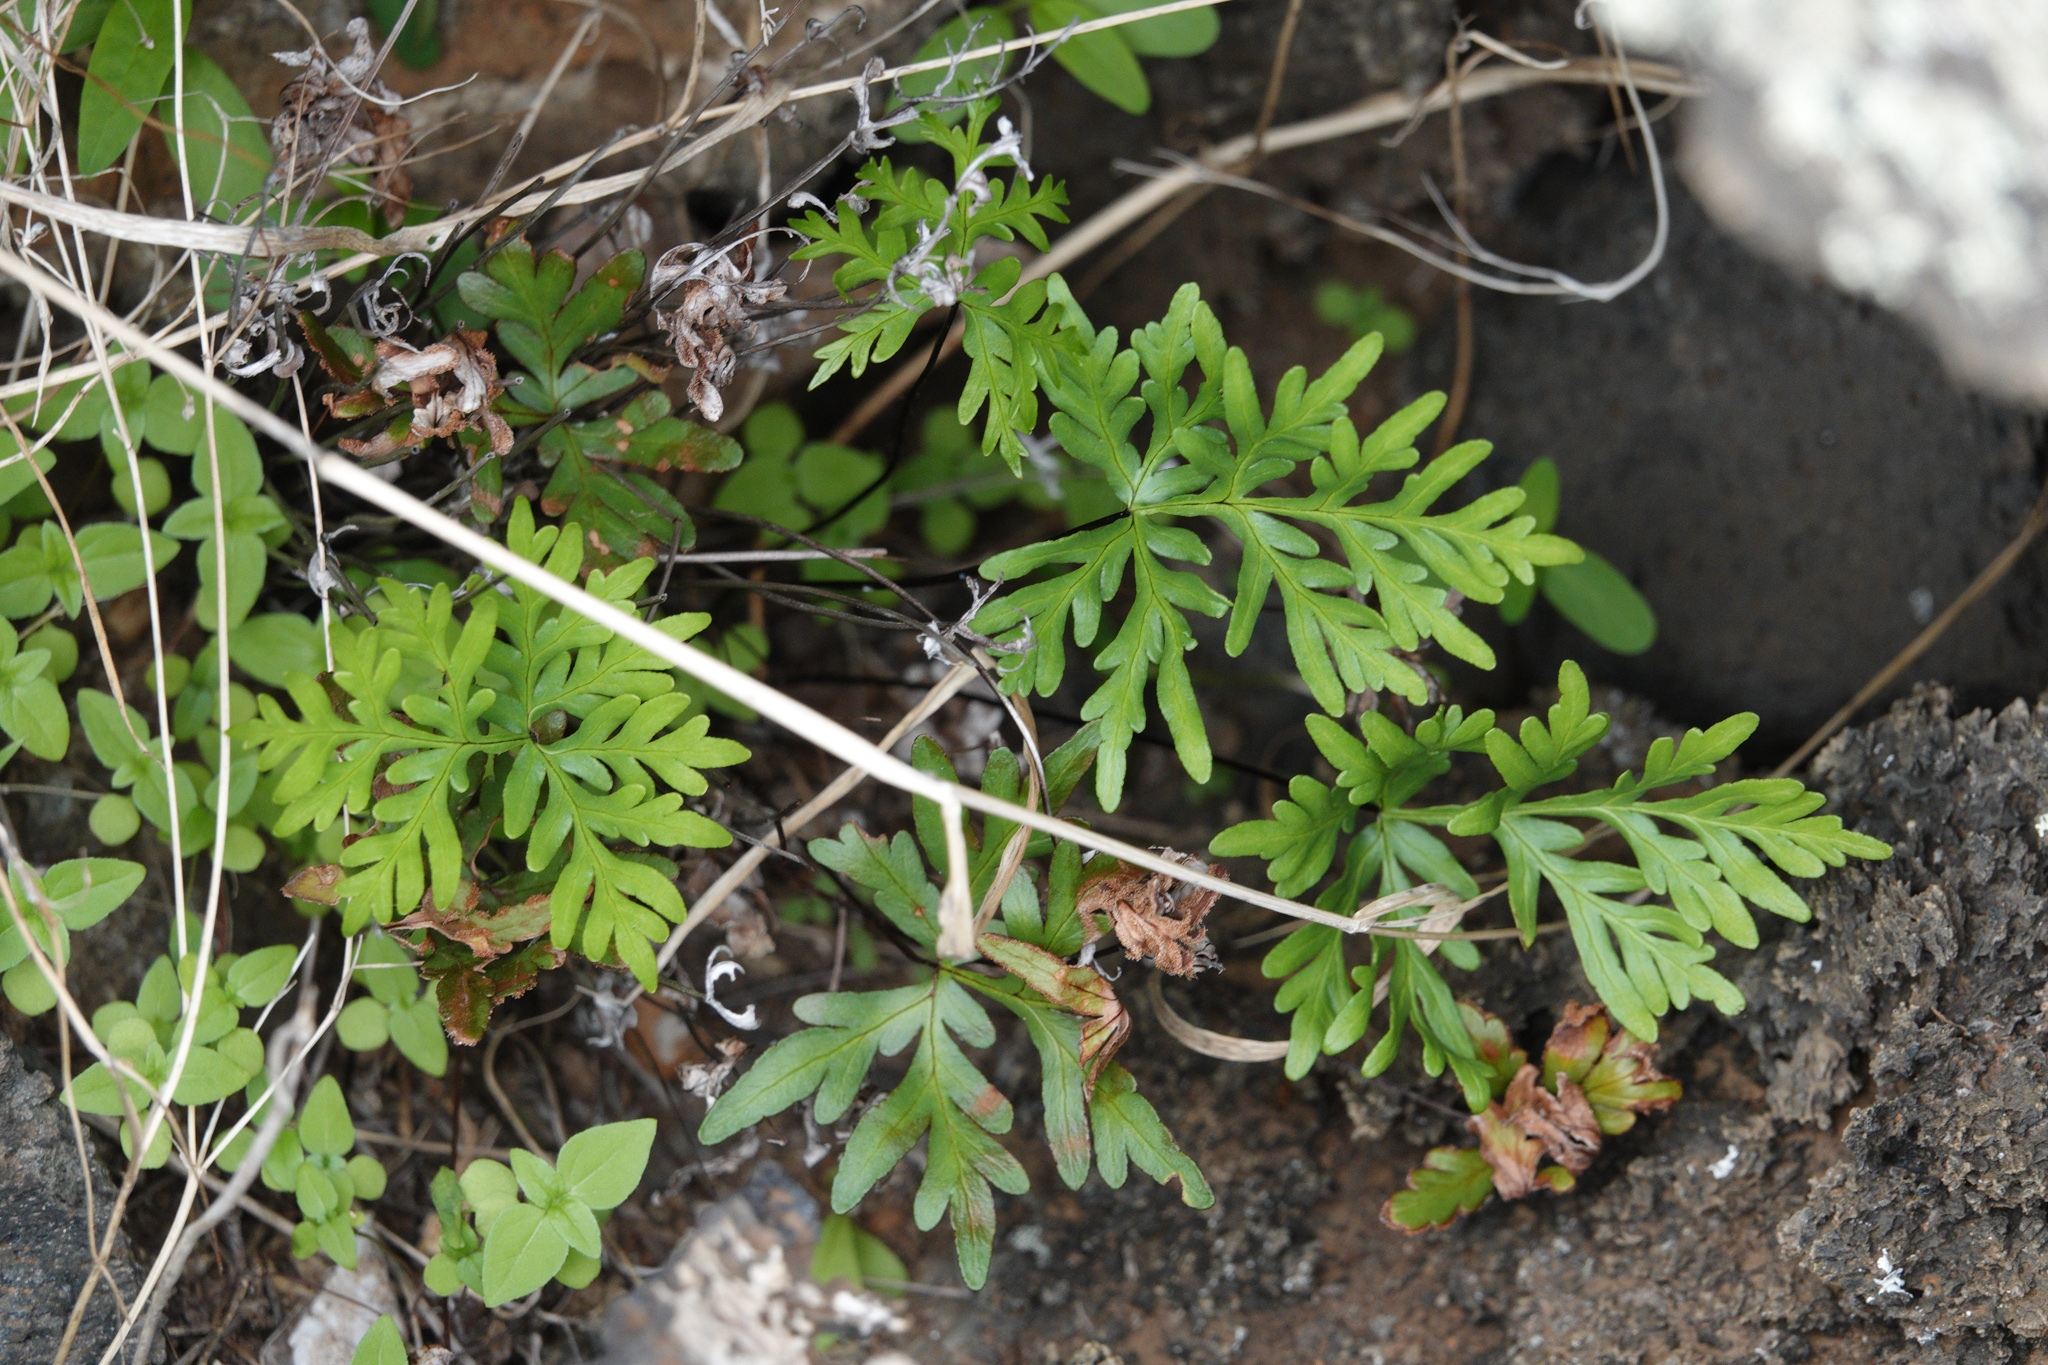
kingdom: Plantae
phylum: Tracheophyta
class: Polypodiopsida
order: Polypodiales
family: Pteridaceae
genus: Doryopteris
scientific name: Doryopteris decipiens
